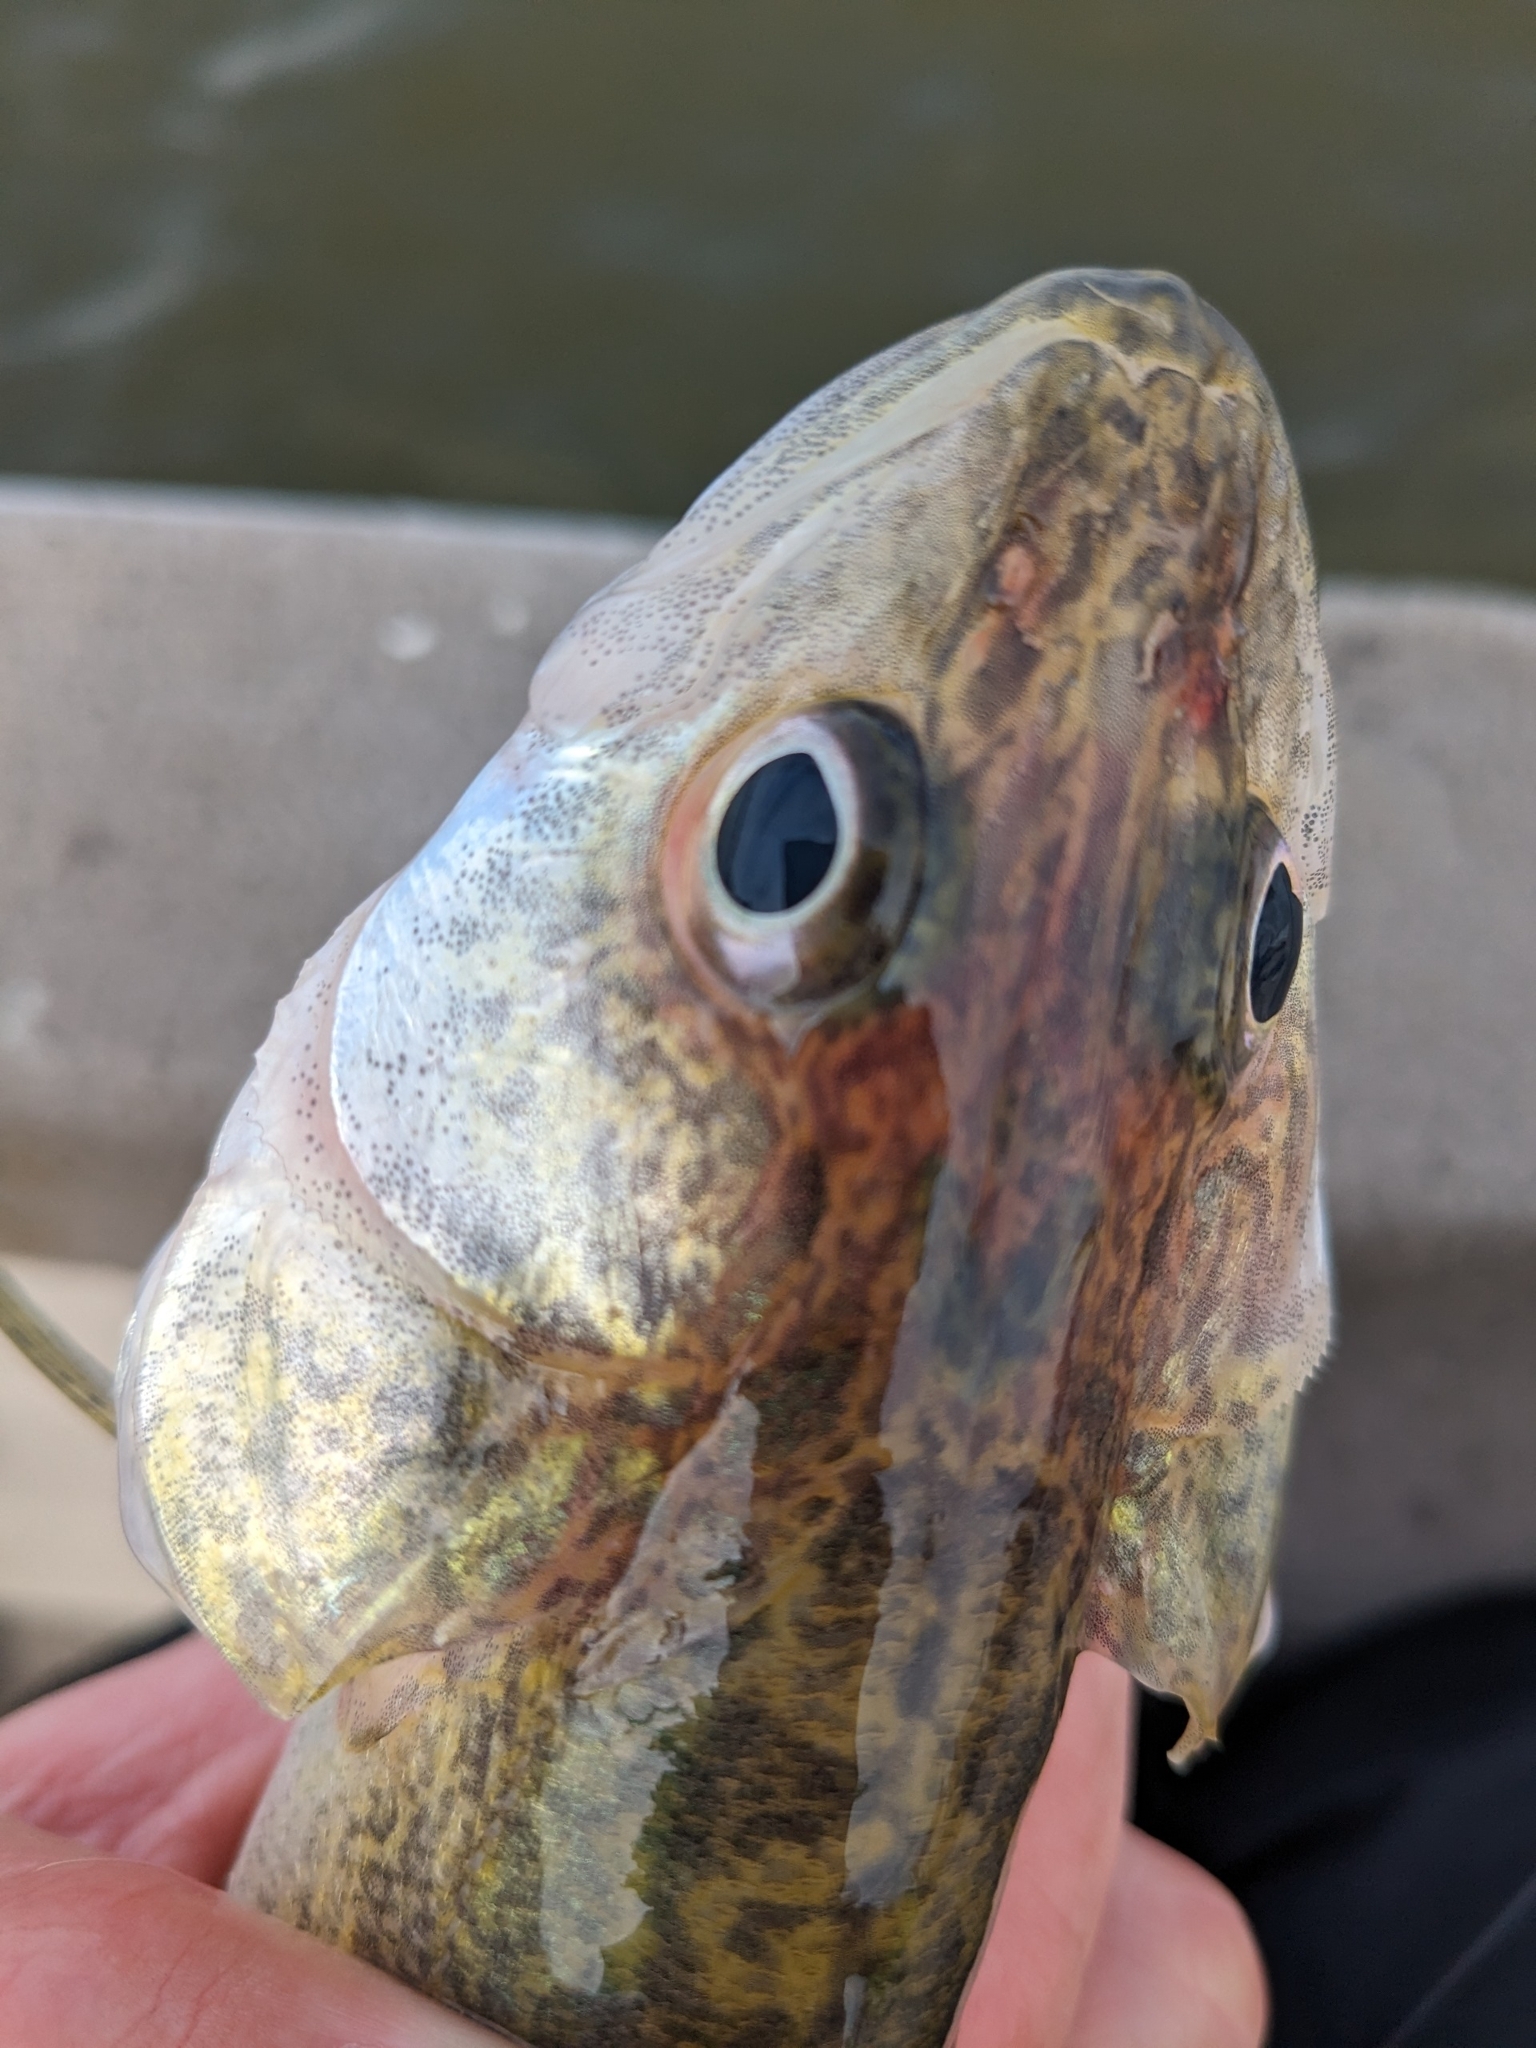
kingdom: Animalia
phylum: Chordata
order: Perciformes
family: Percidae
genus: Sander
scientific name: Sander vitreus
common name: Walleye
